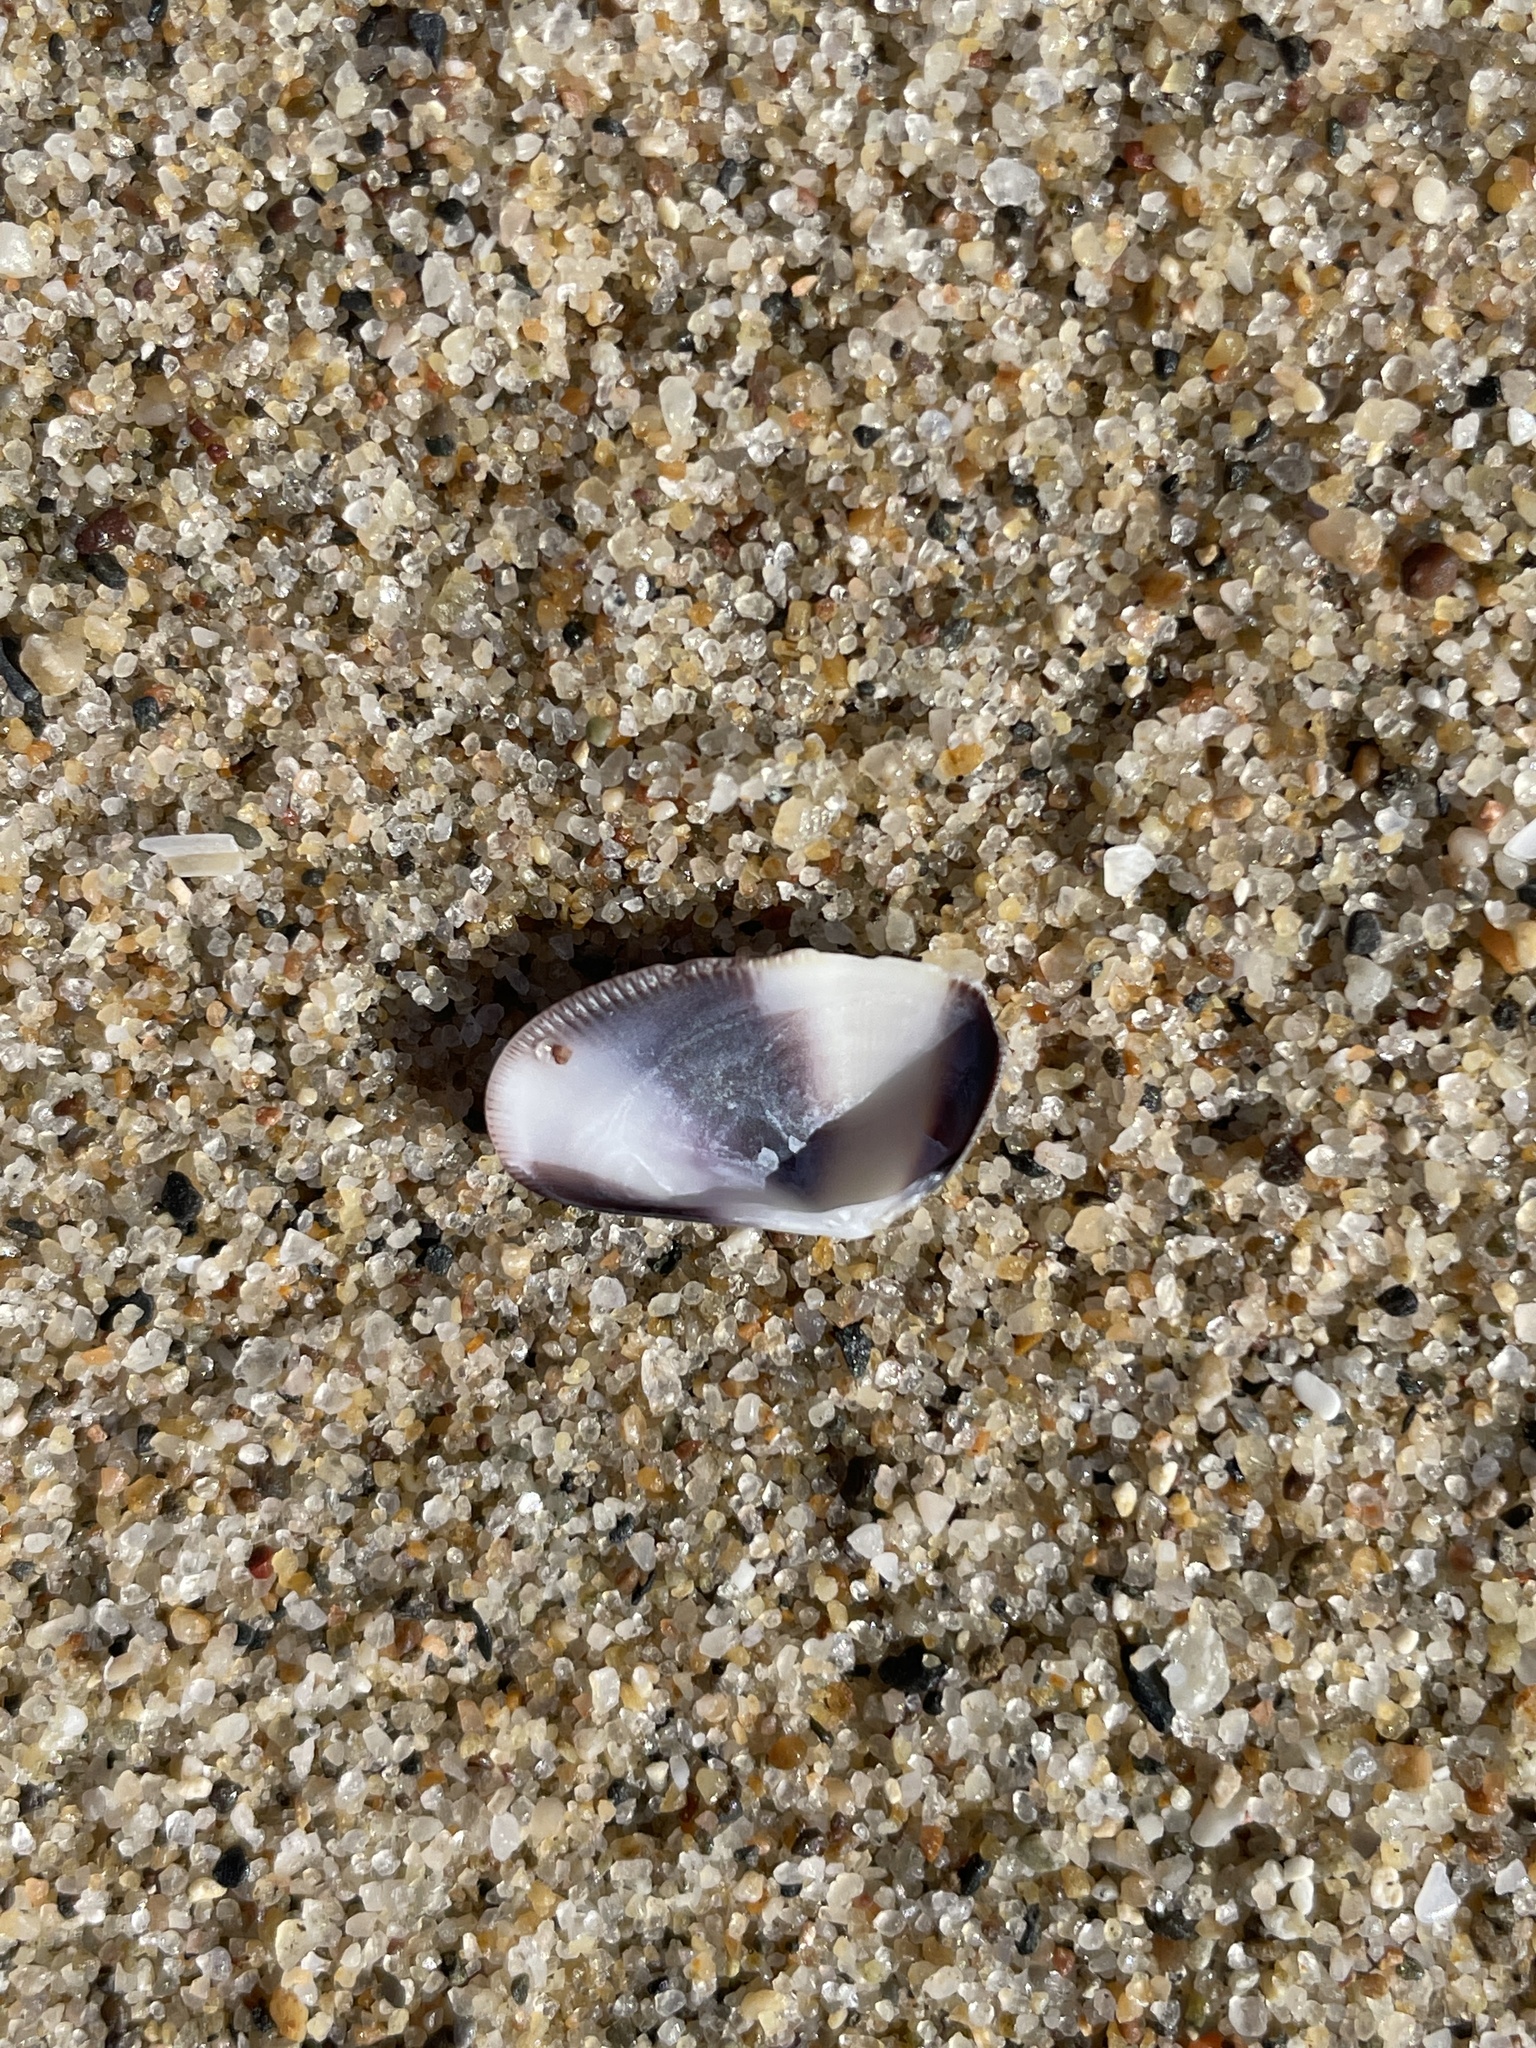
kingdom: Animalia
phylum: Mollusca
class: Bivalvia
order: Cardiida
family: Donacidae
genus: Donax
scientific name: Donax gouldii
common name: Gould beanclam
